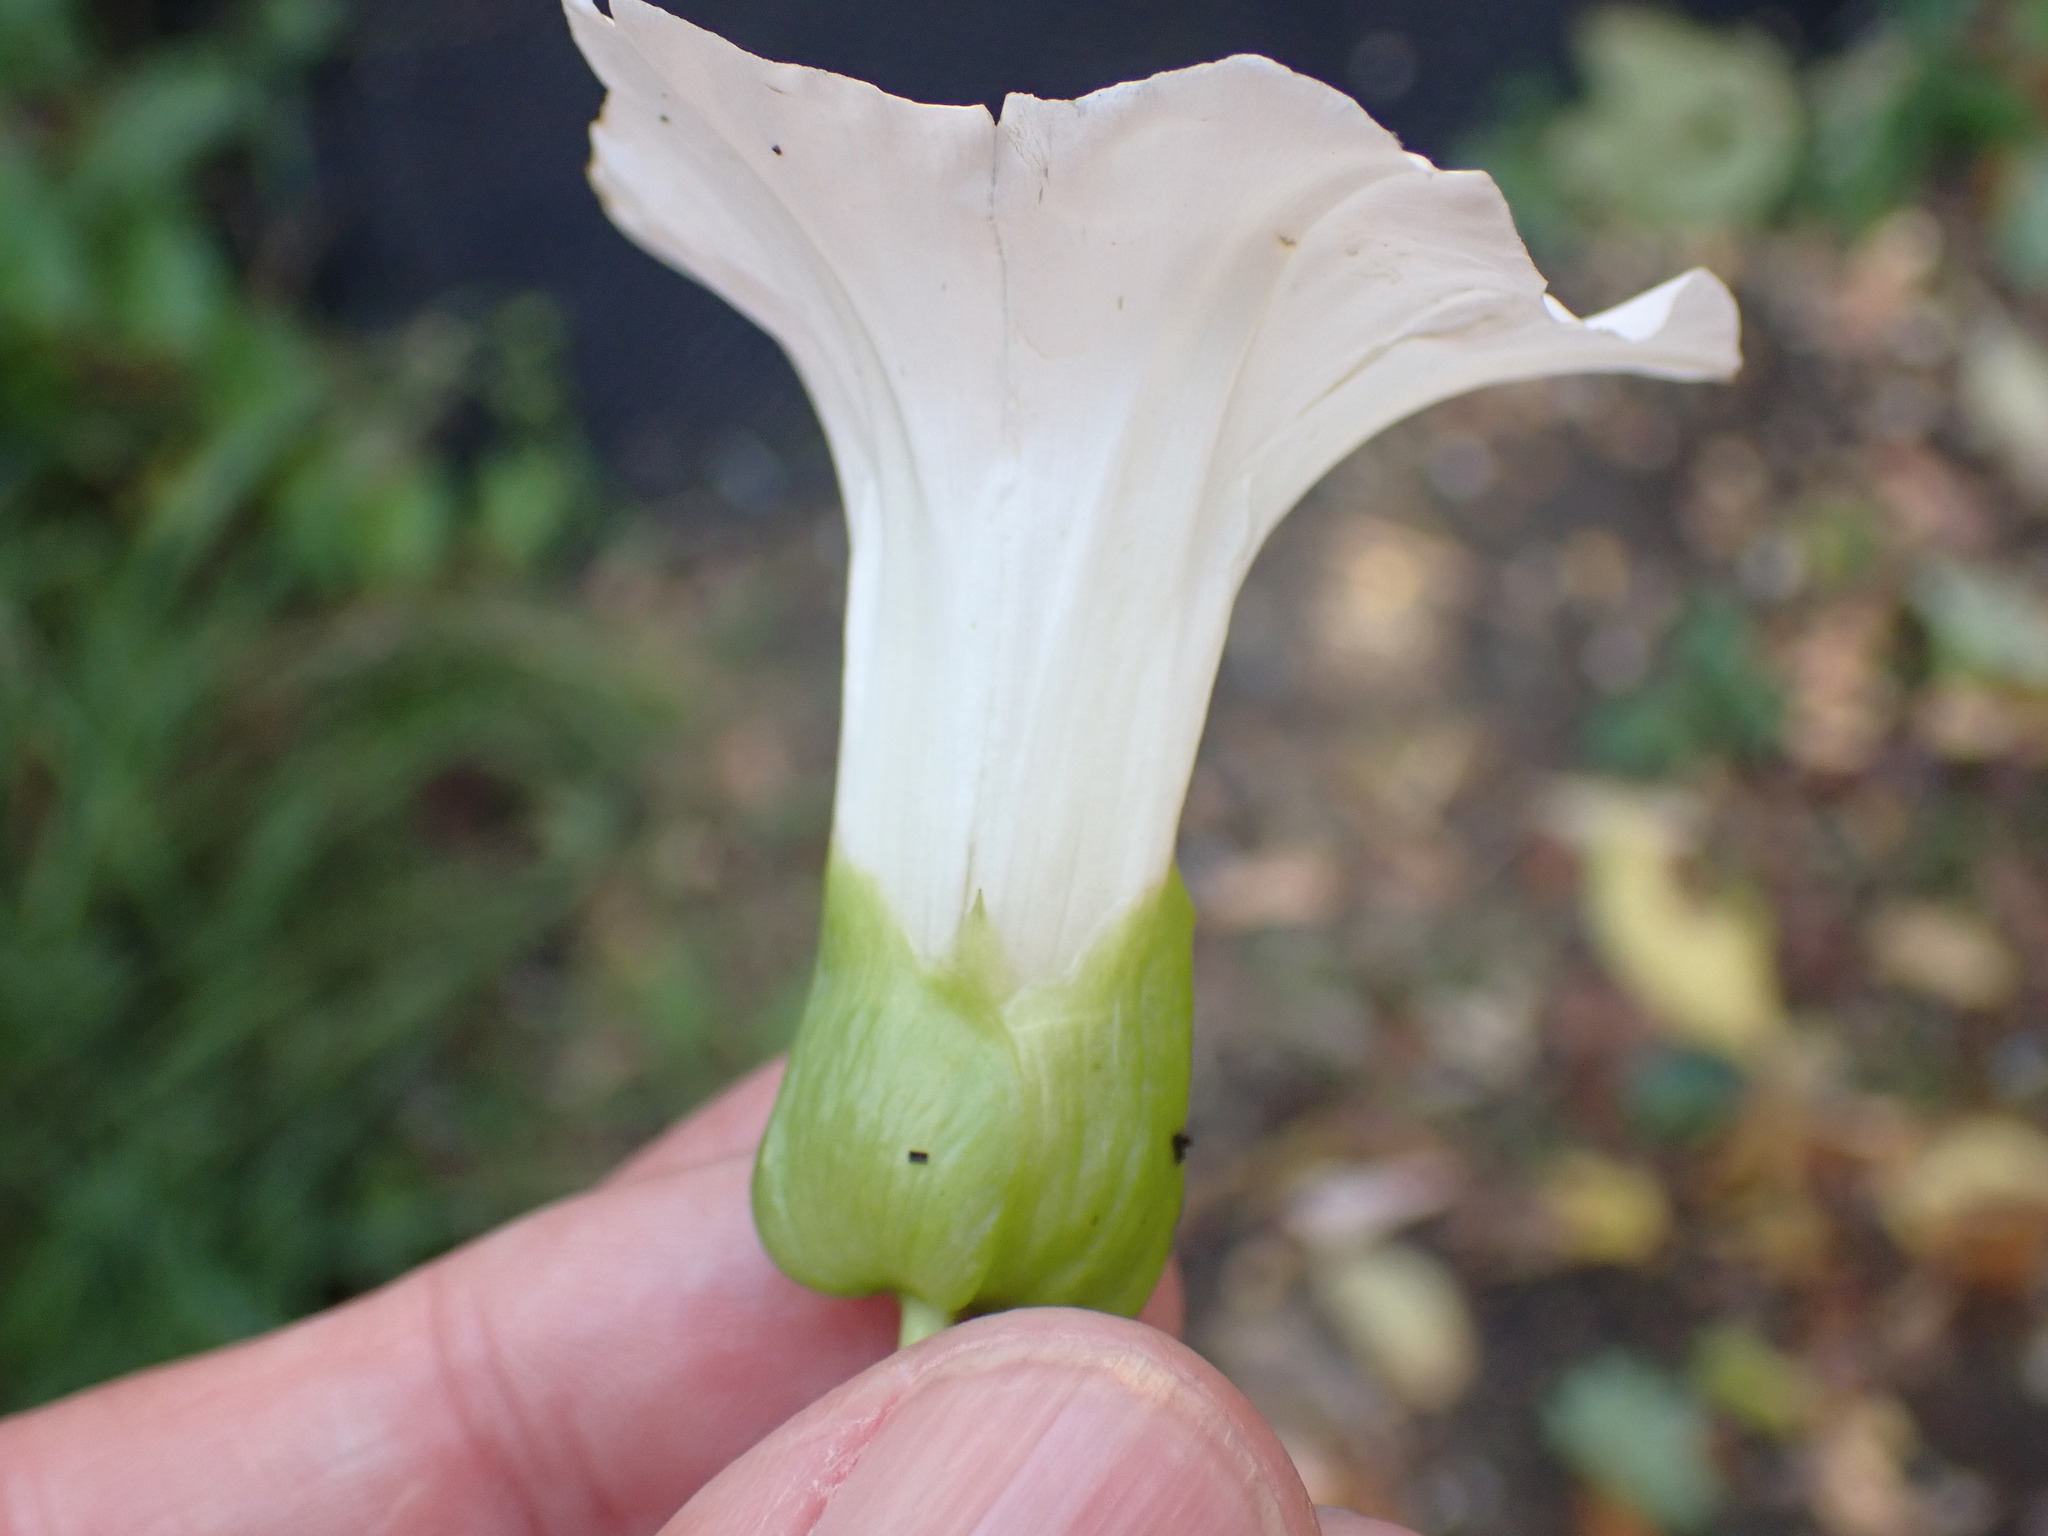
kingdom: Plantae
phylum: Tracheophyta
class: Magnoliopsida
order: Solanales
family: Convolvulaceae
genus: Calystegia
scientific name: Calystegia sepium
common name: Hedge bindweed
